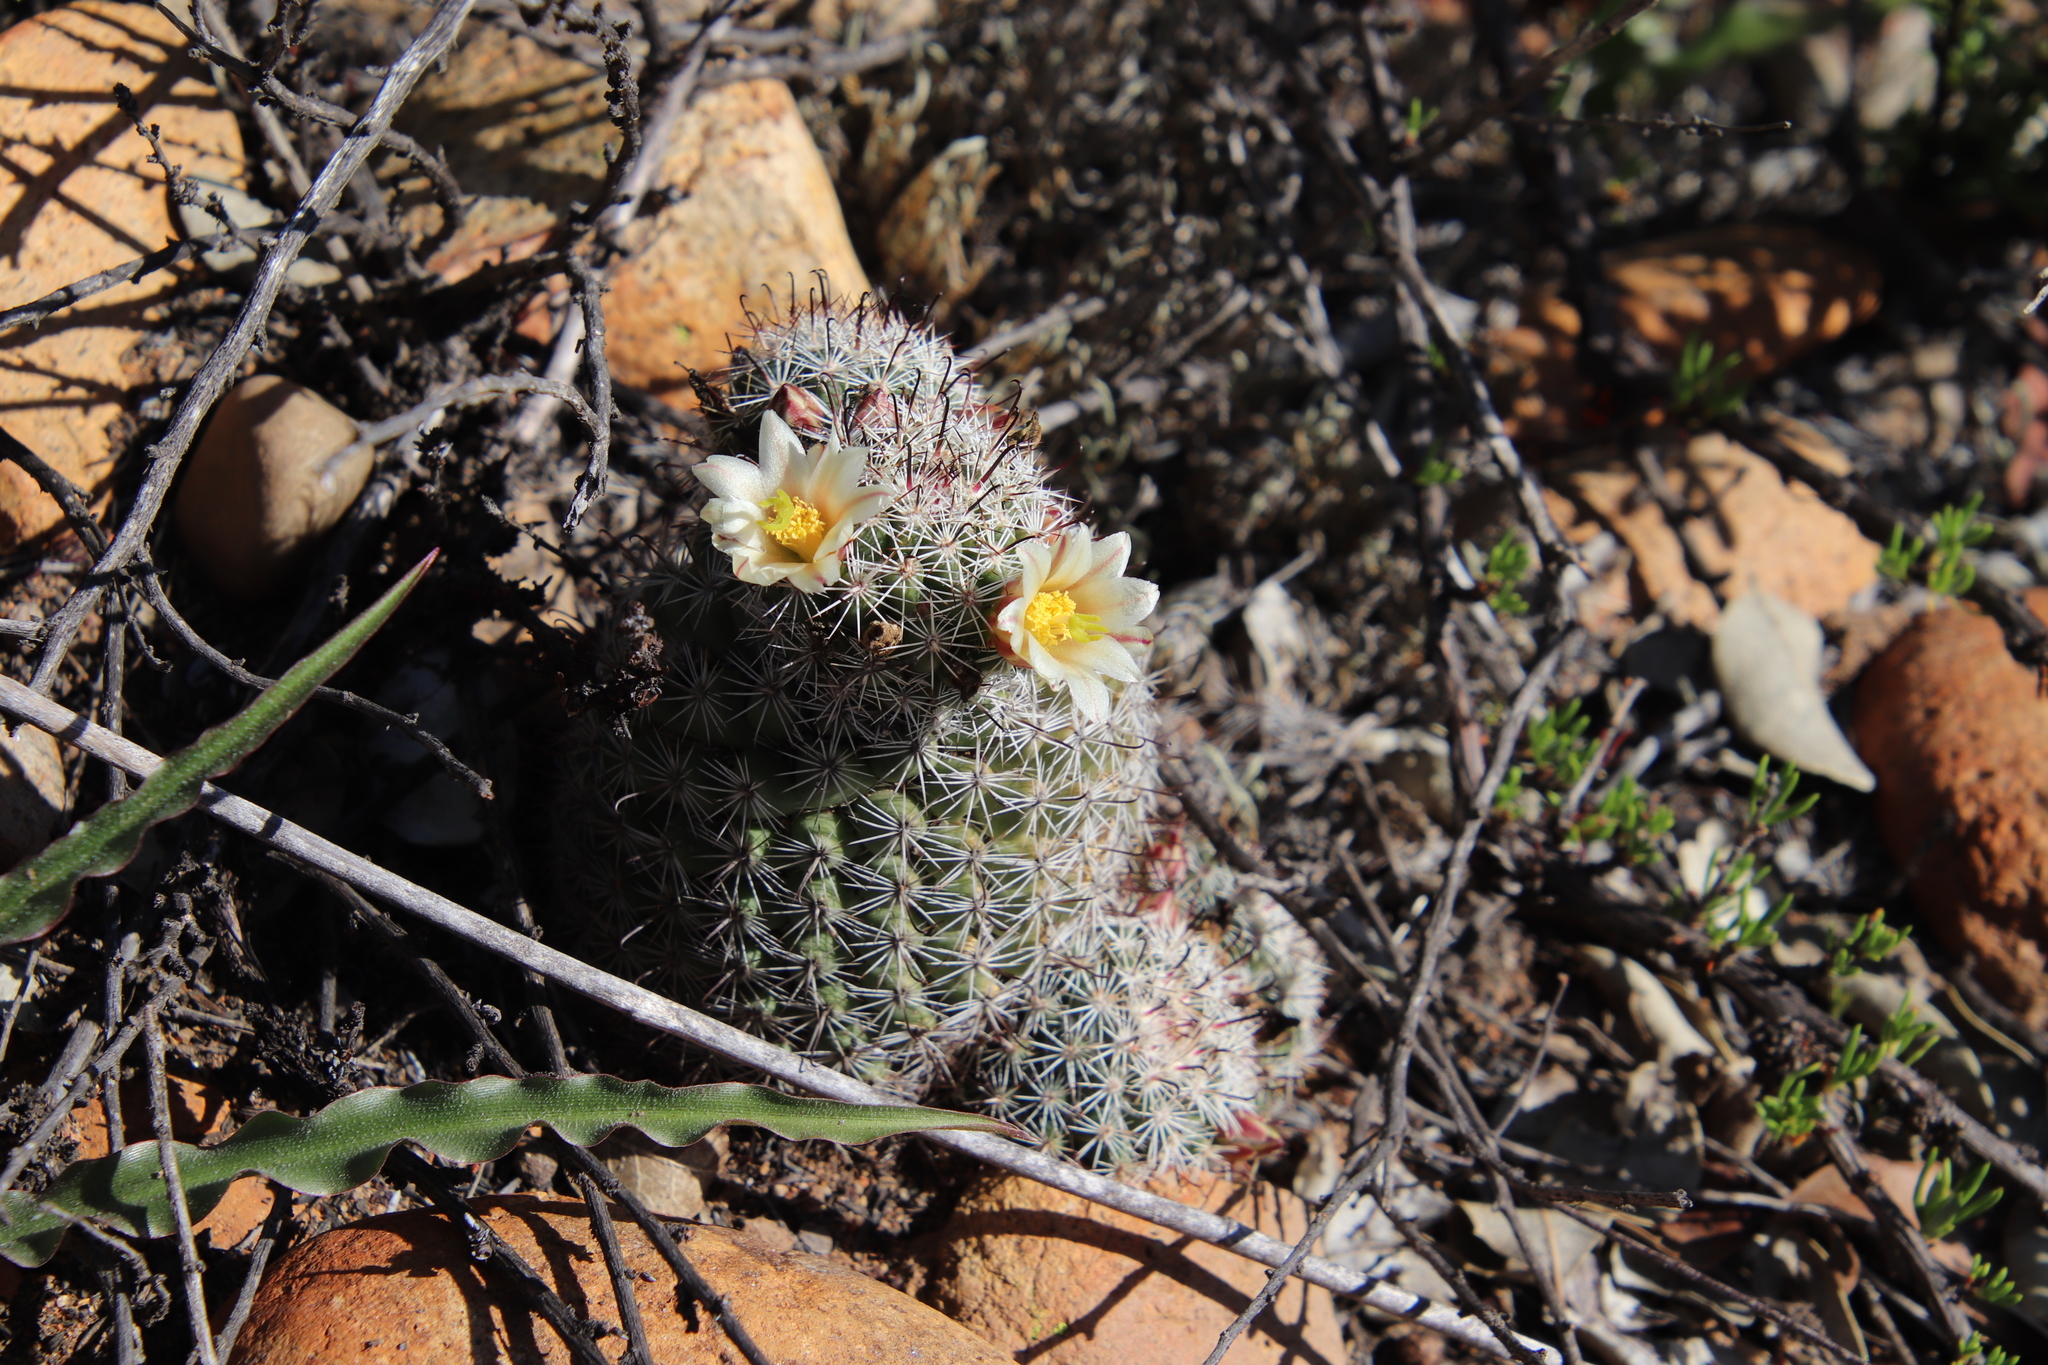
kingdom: Plantae
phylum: Tracheophyta
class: Magnoliopsida
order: Caryophyllales
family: Cactaceae
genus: Cochemiea
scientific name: Cochemiea dioica
